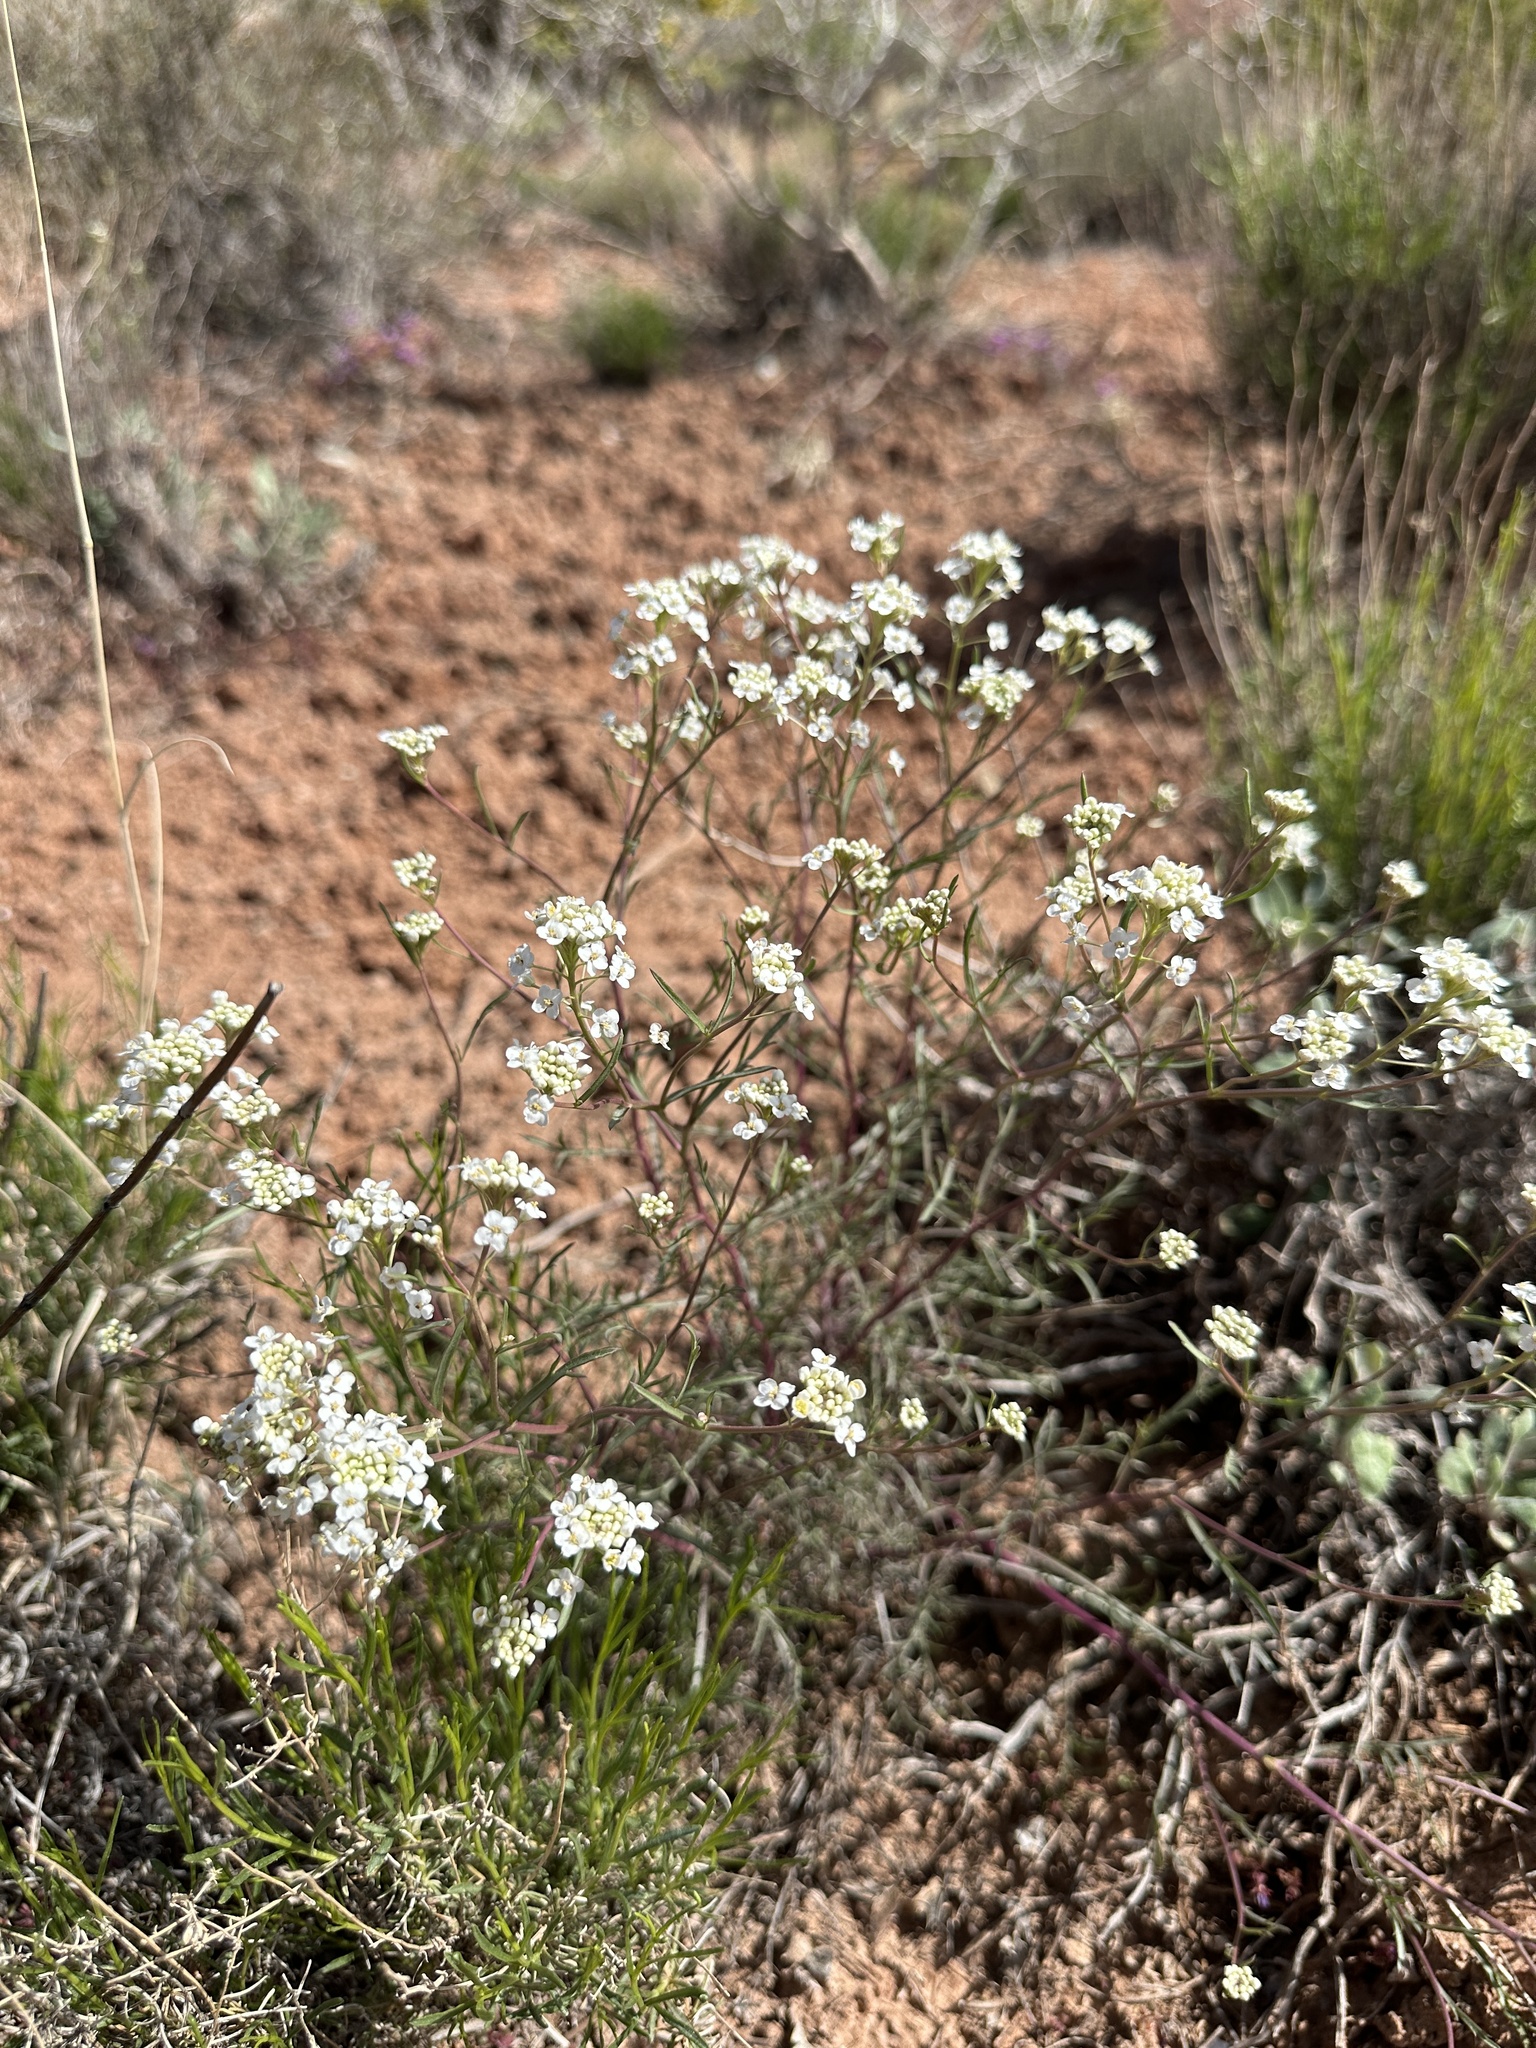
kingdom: Plantae
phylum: Tracheophyta
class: Magnoliopsida
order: Brassicales
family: Brassicaceae
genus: Lepidium
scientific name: Lepidium montanum
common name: Mountain pepperplant
